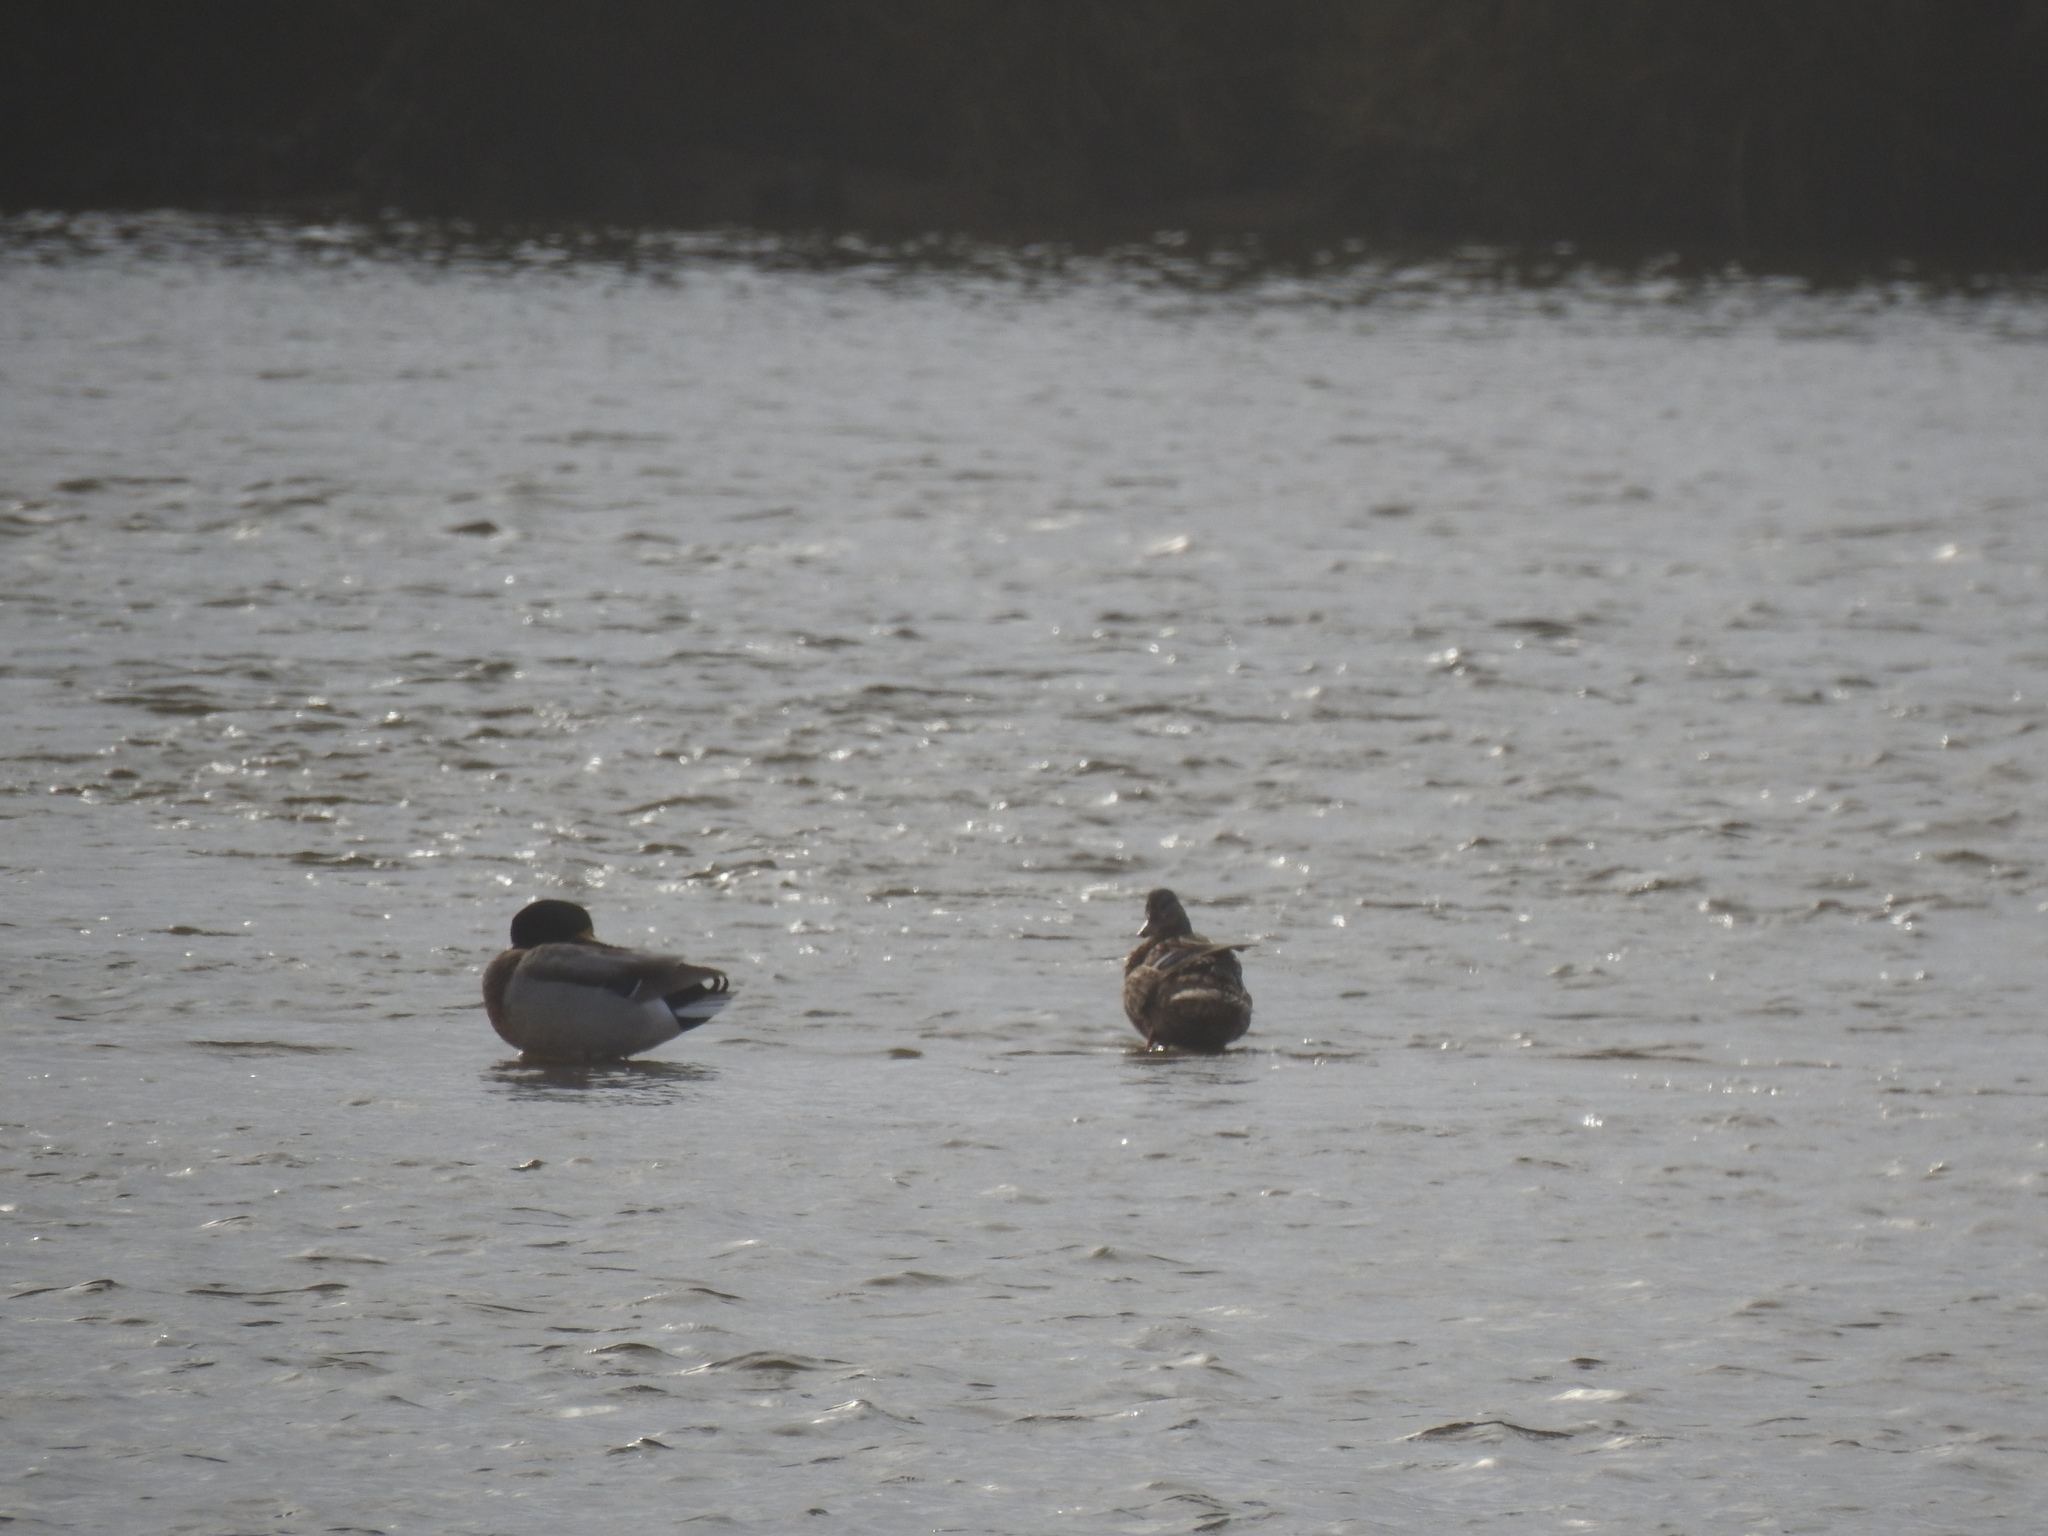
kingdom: Animalia
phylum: Chordata
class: Aves
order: Anseriformes
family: Anatidae
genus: Anas
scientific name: Anas platyrhynchos
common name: Mallard
